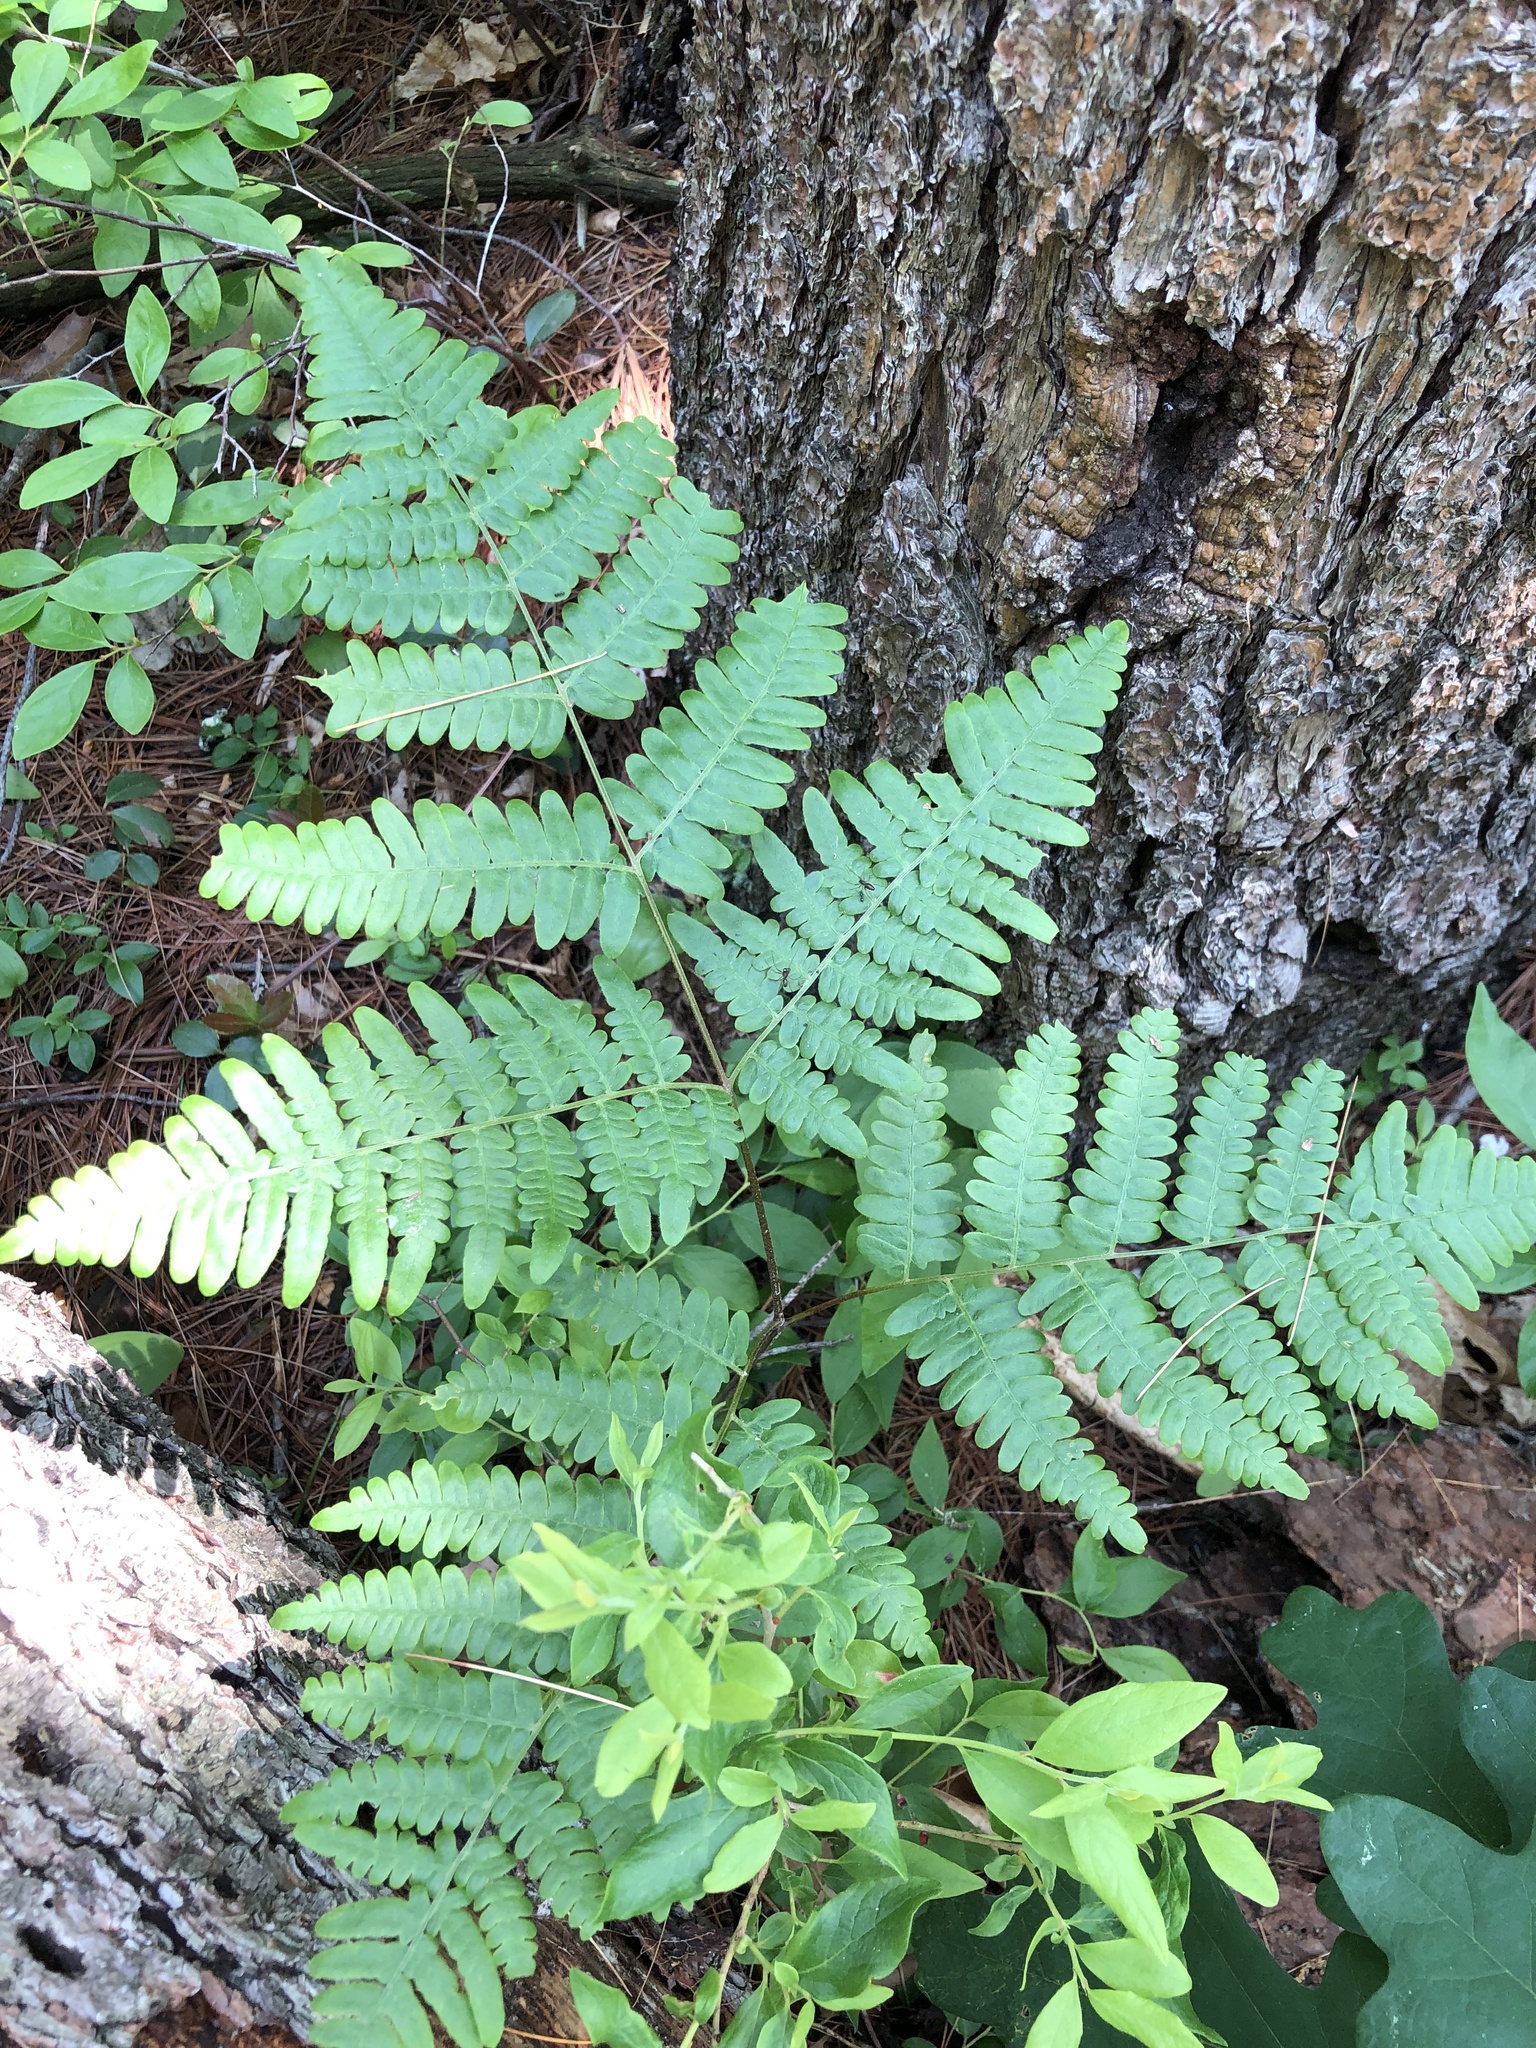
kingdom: Plantae
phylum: Tracheophyta
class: Polypodiopsida
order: Polypodiales
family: Dennstaedtiaceae
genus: Pteridium
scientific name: Pteridium aquilinum
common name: Bracken
